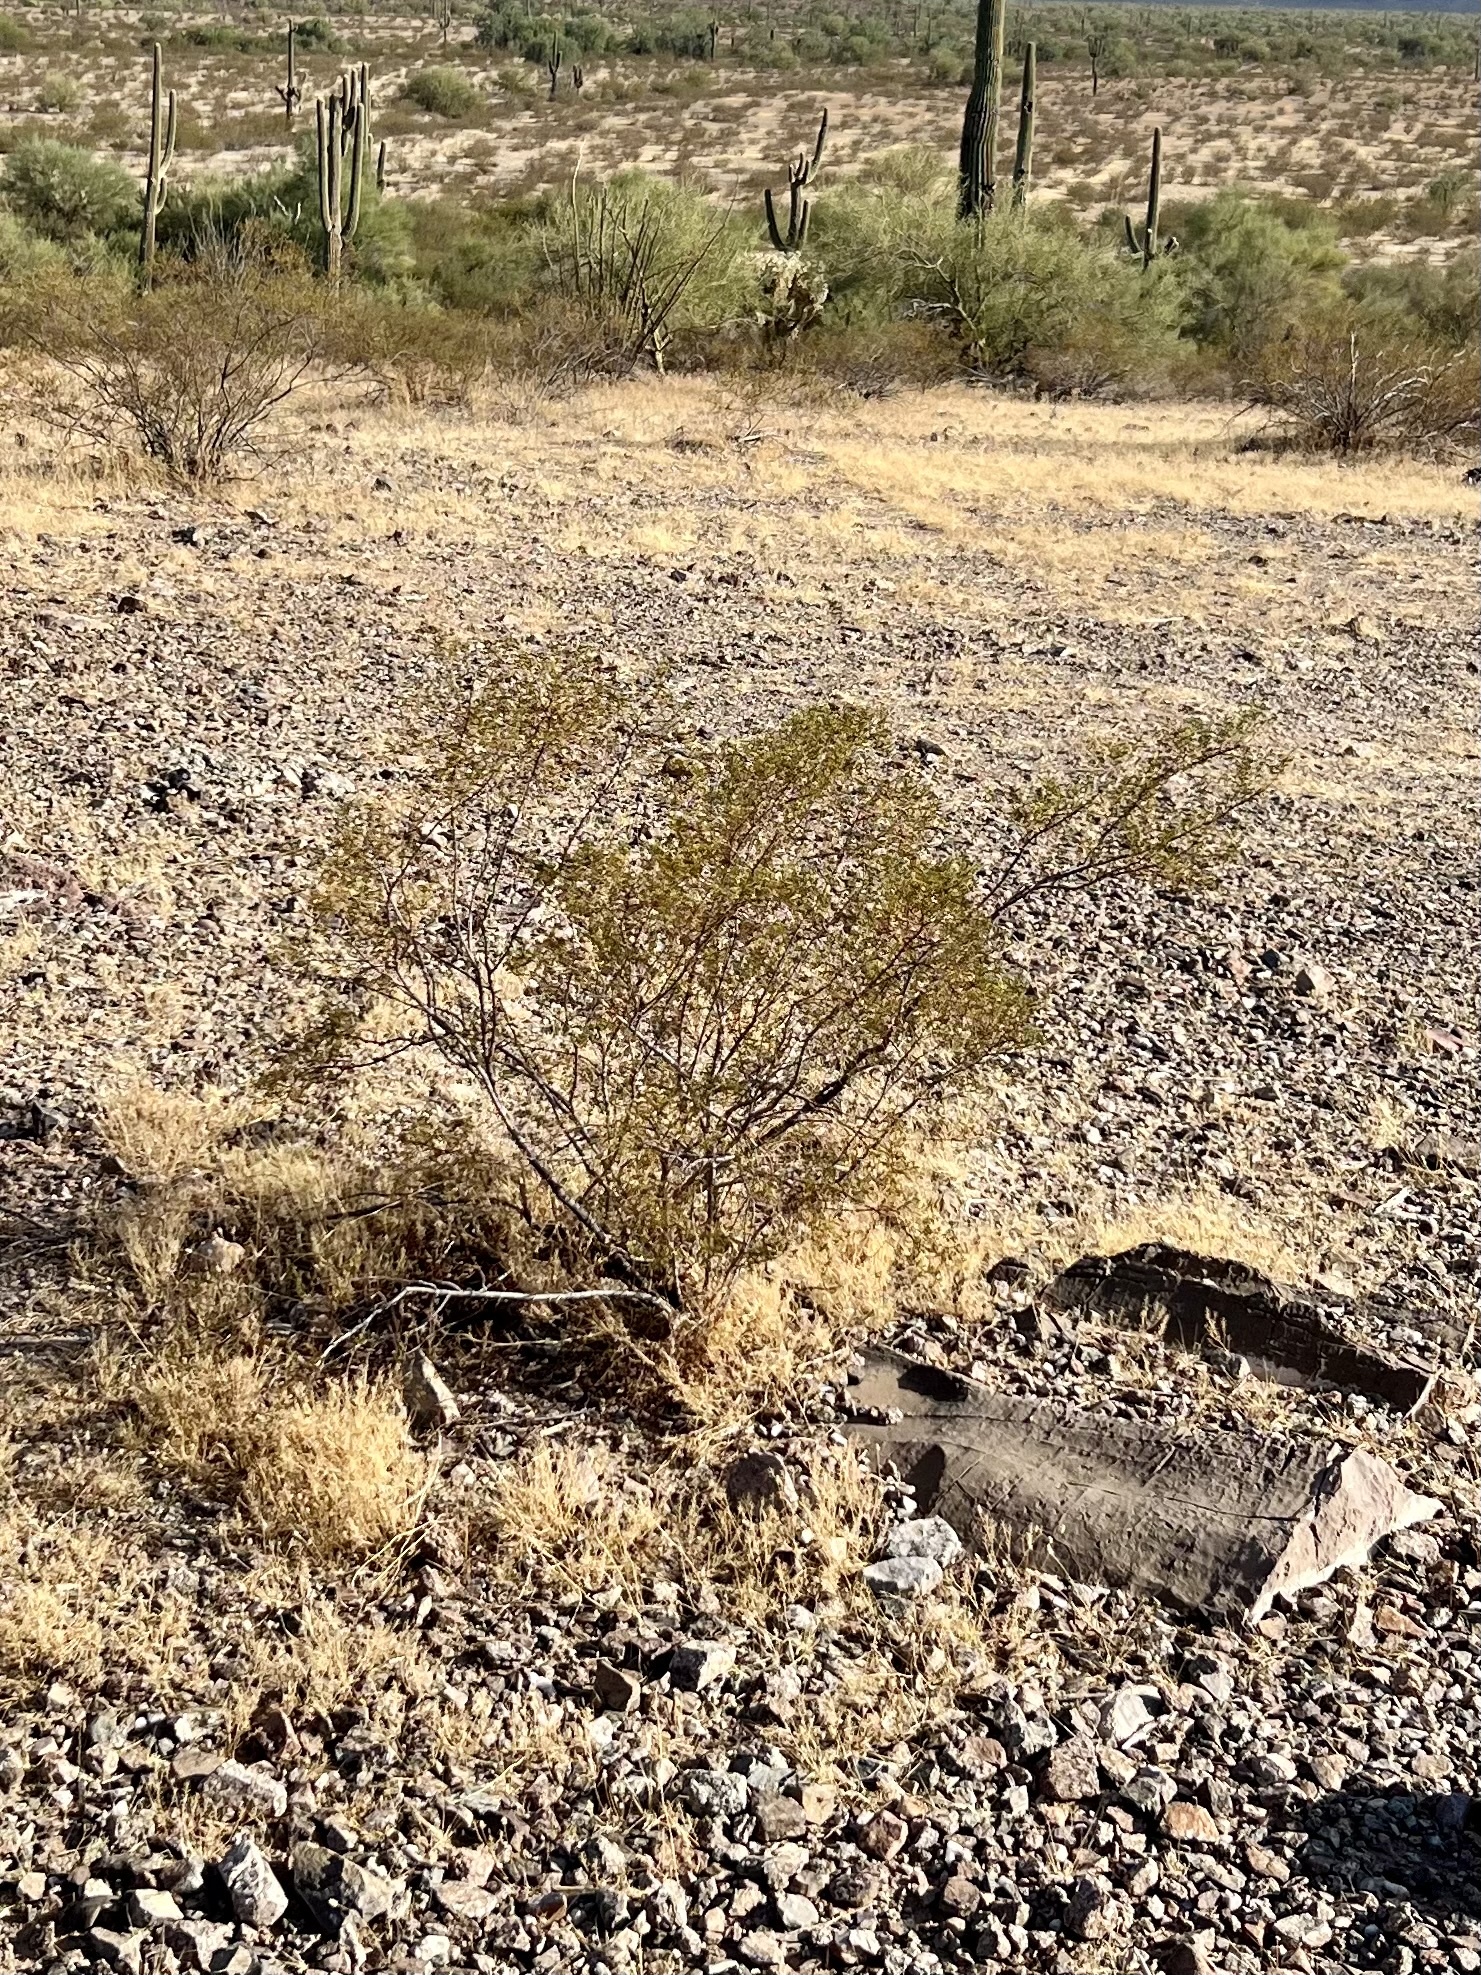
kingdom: Plantae
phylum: Tracheophyta
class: Magnoliopsida
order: Zygophyllales
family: Zygophyllaceae
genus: Larrea
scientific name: Larrea tridentata
